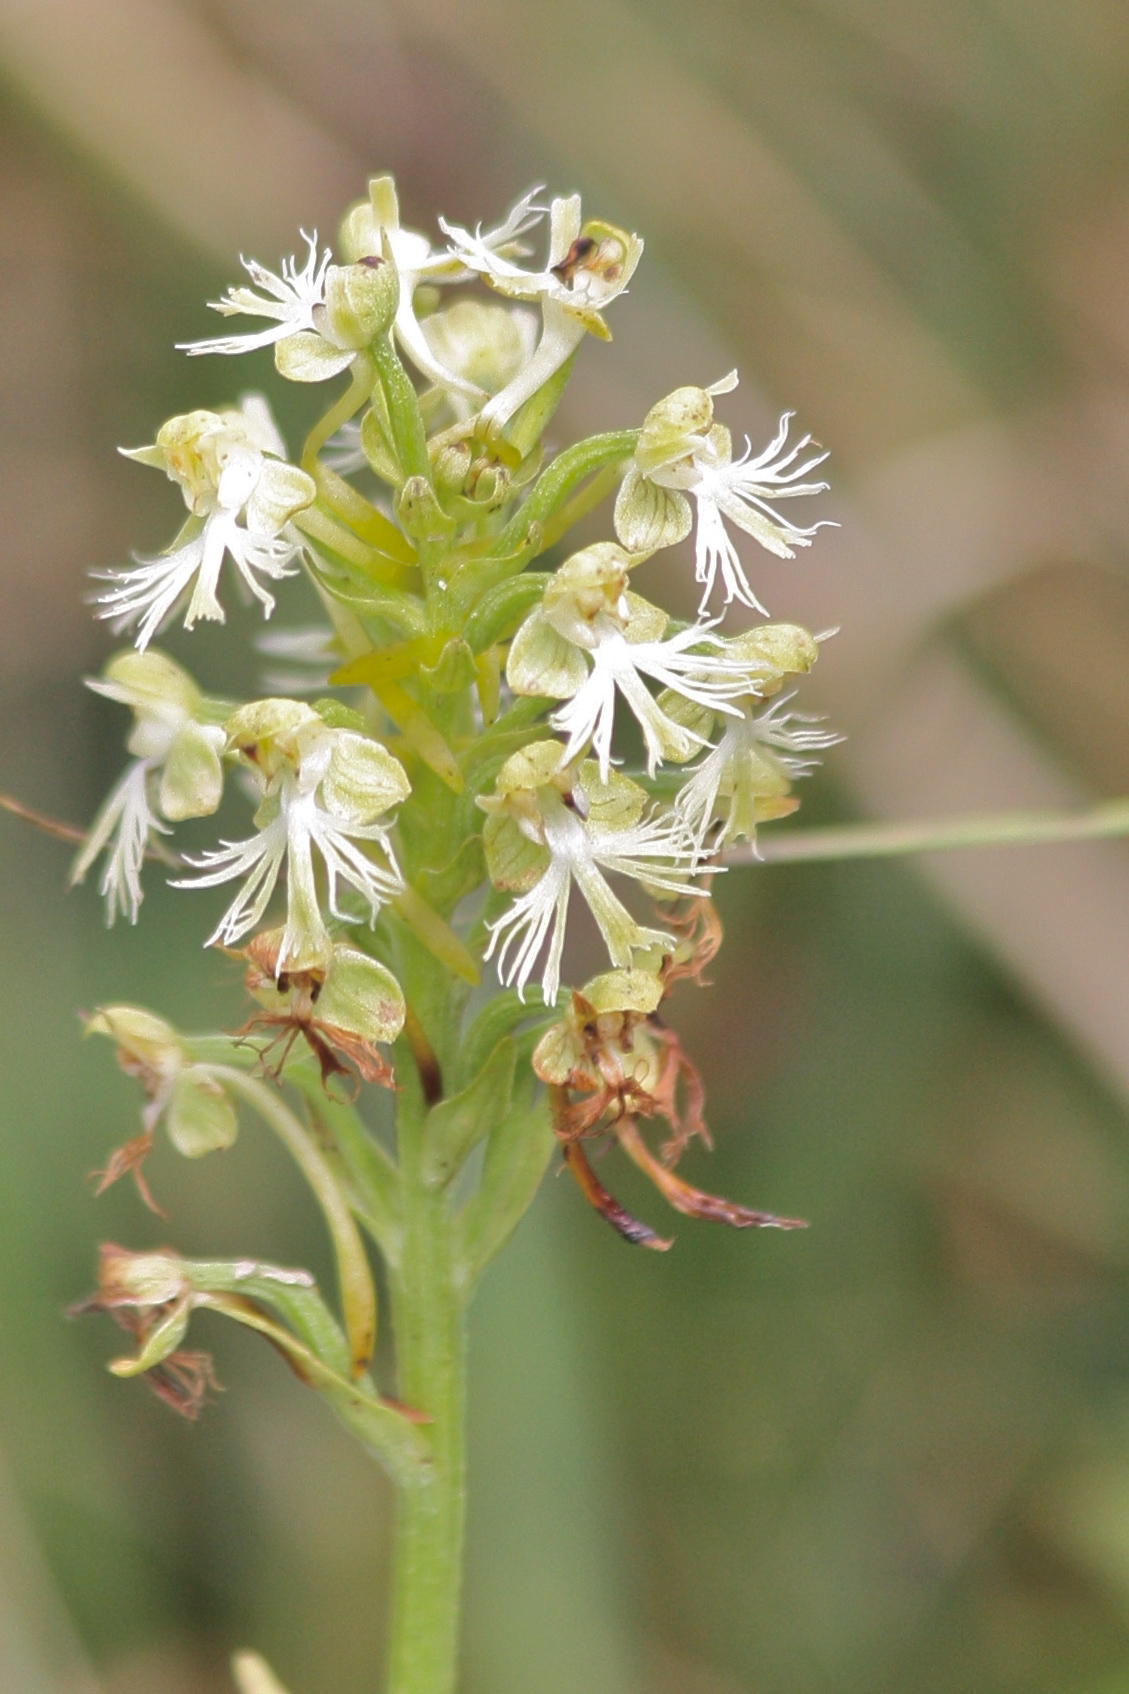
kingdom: Plantae
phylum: Tracheophyta
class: Liliopsida
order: Asparagales
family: Orchidaceae
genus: Platanthera
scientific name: Platanthera lacera
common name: Green fringed orchid
